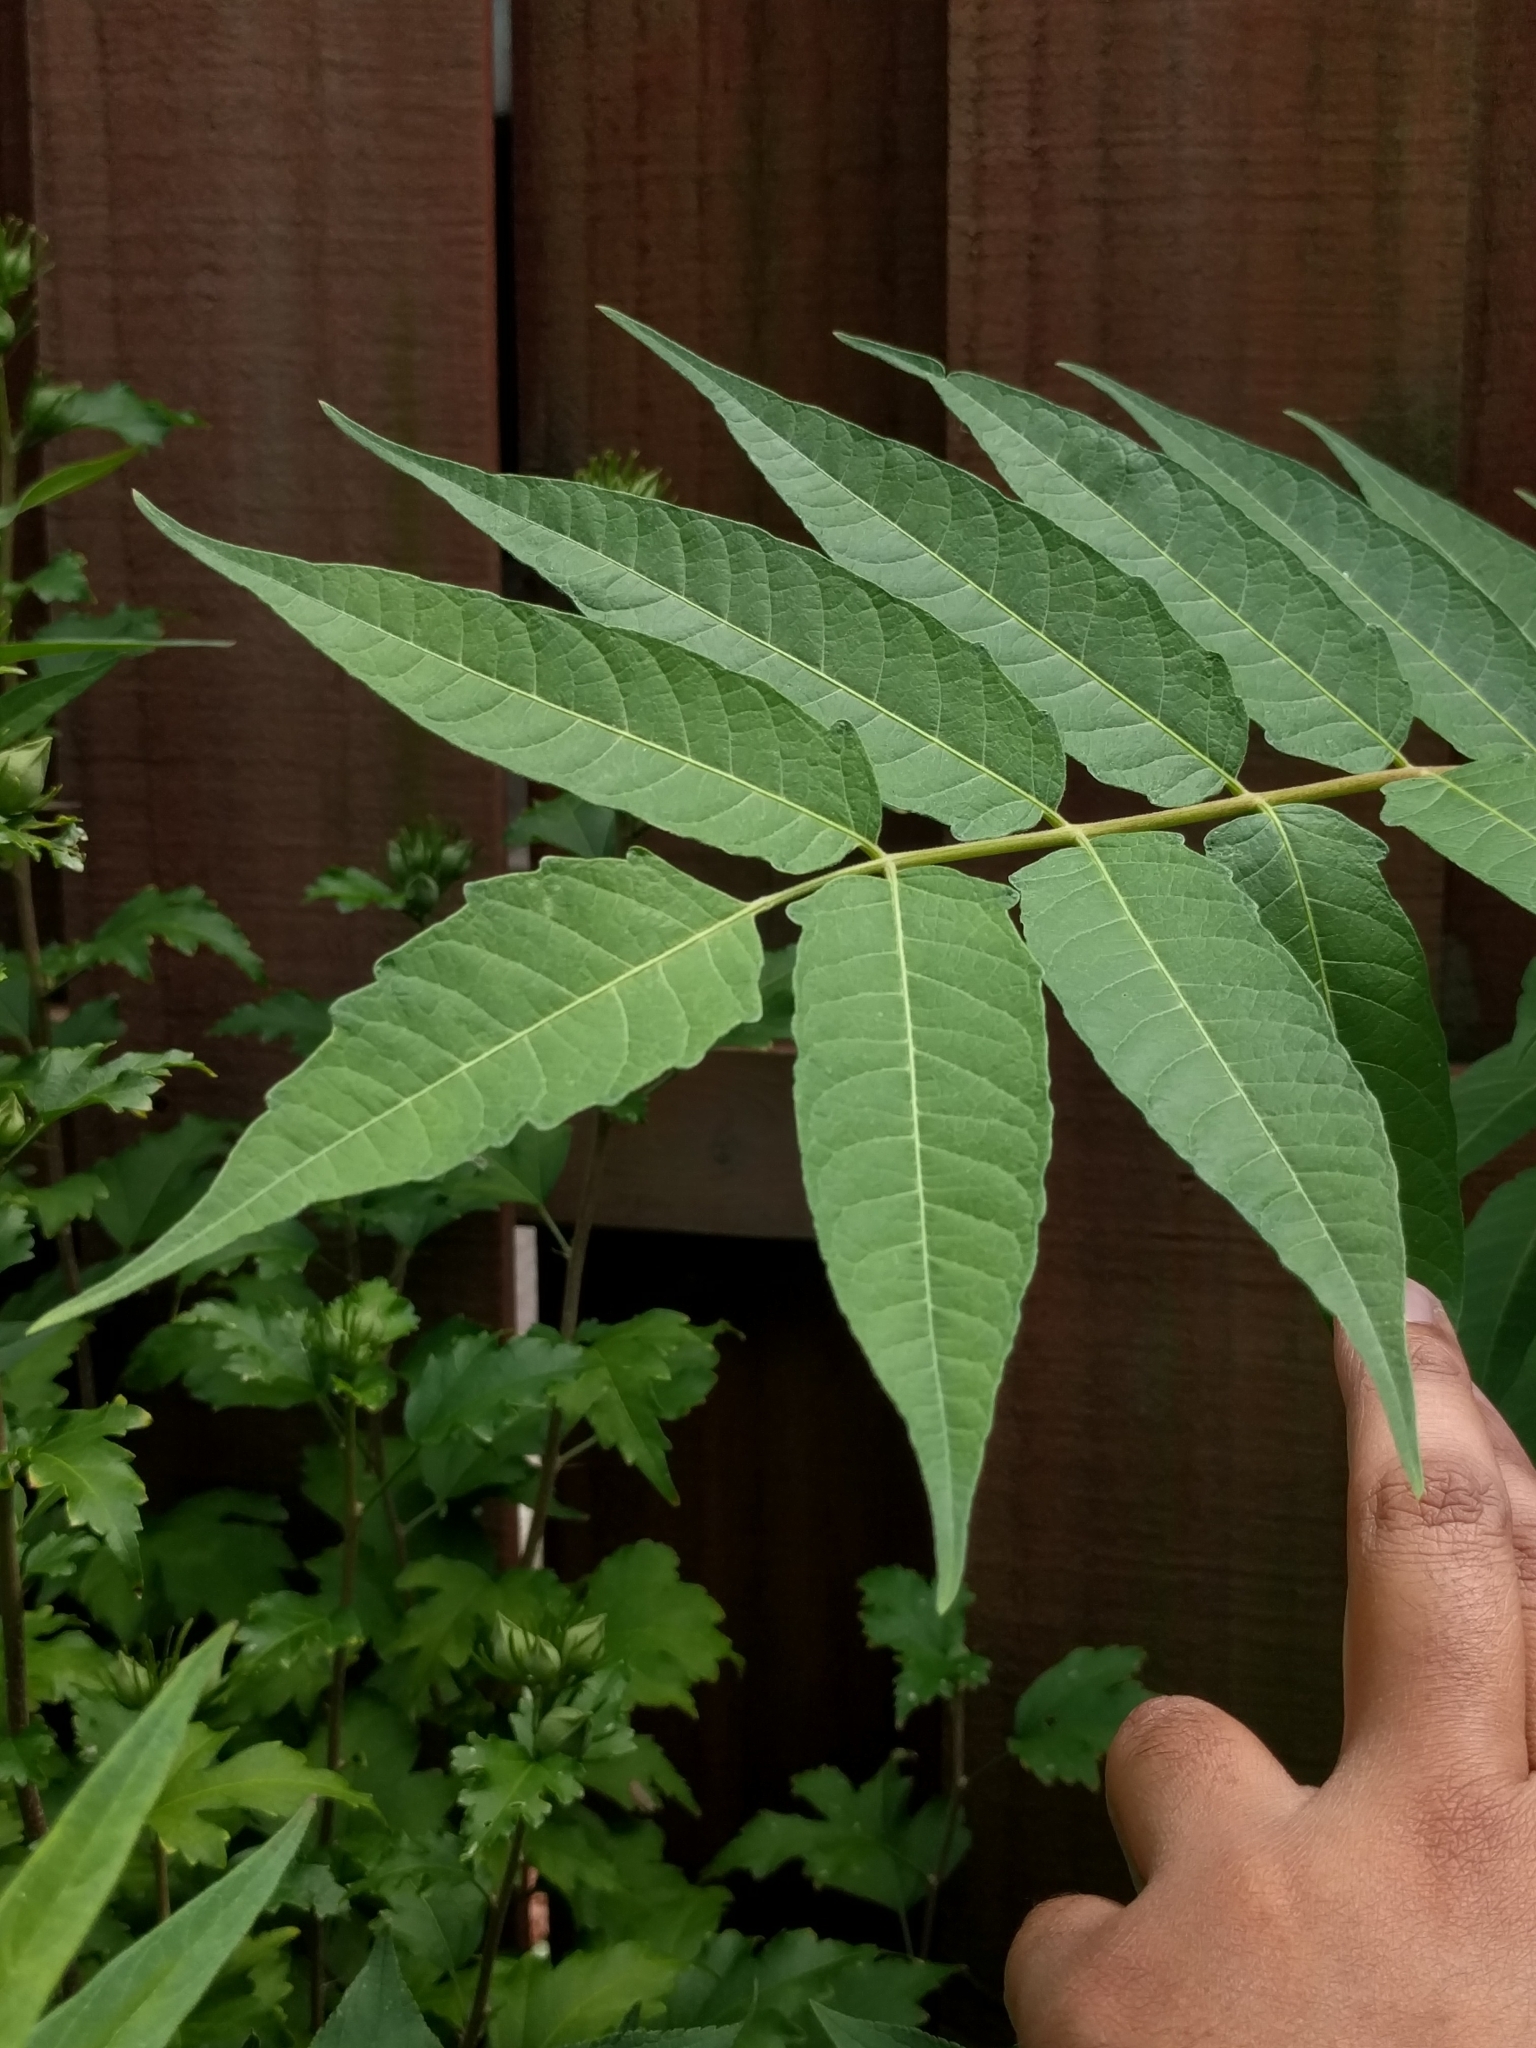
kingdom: Plantae
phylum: Tracheophyta
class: Magnoliopsida
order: Sapindales
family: Simaroubaceae
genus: Ailanthus
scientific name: Ailanthus altissima
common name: Tree-of-heaven
